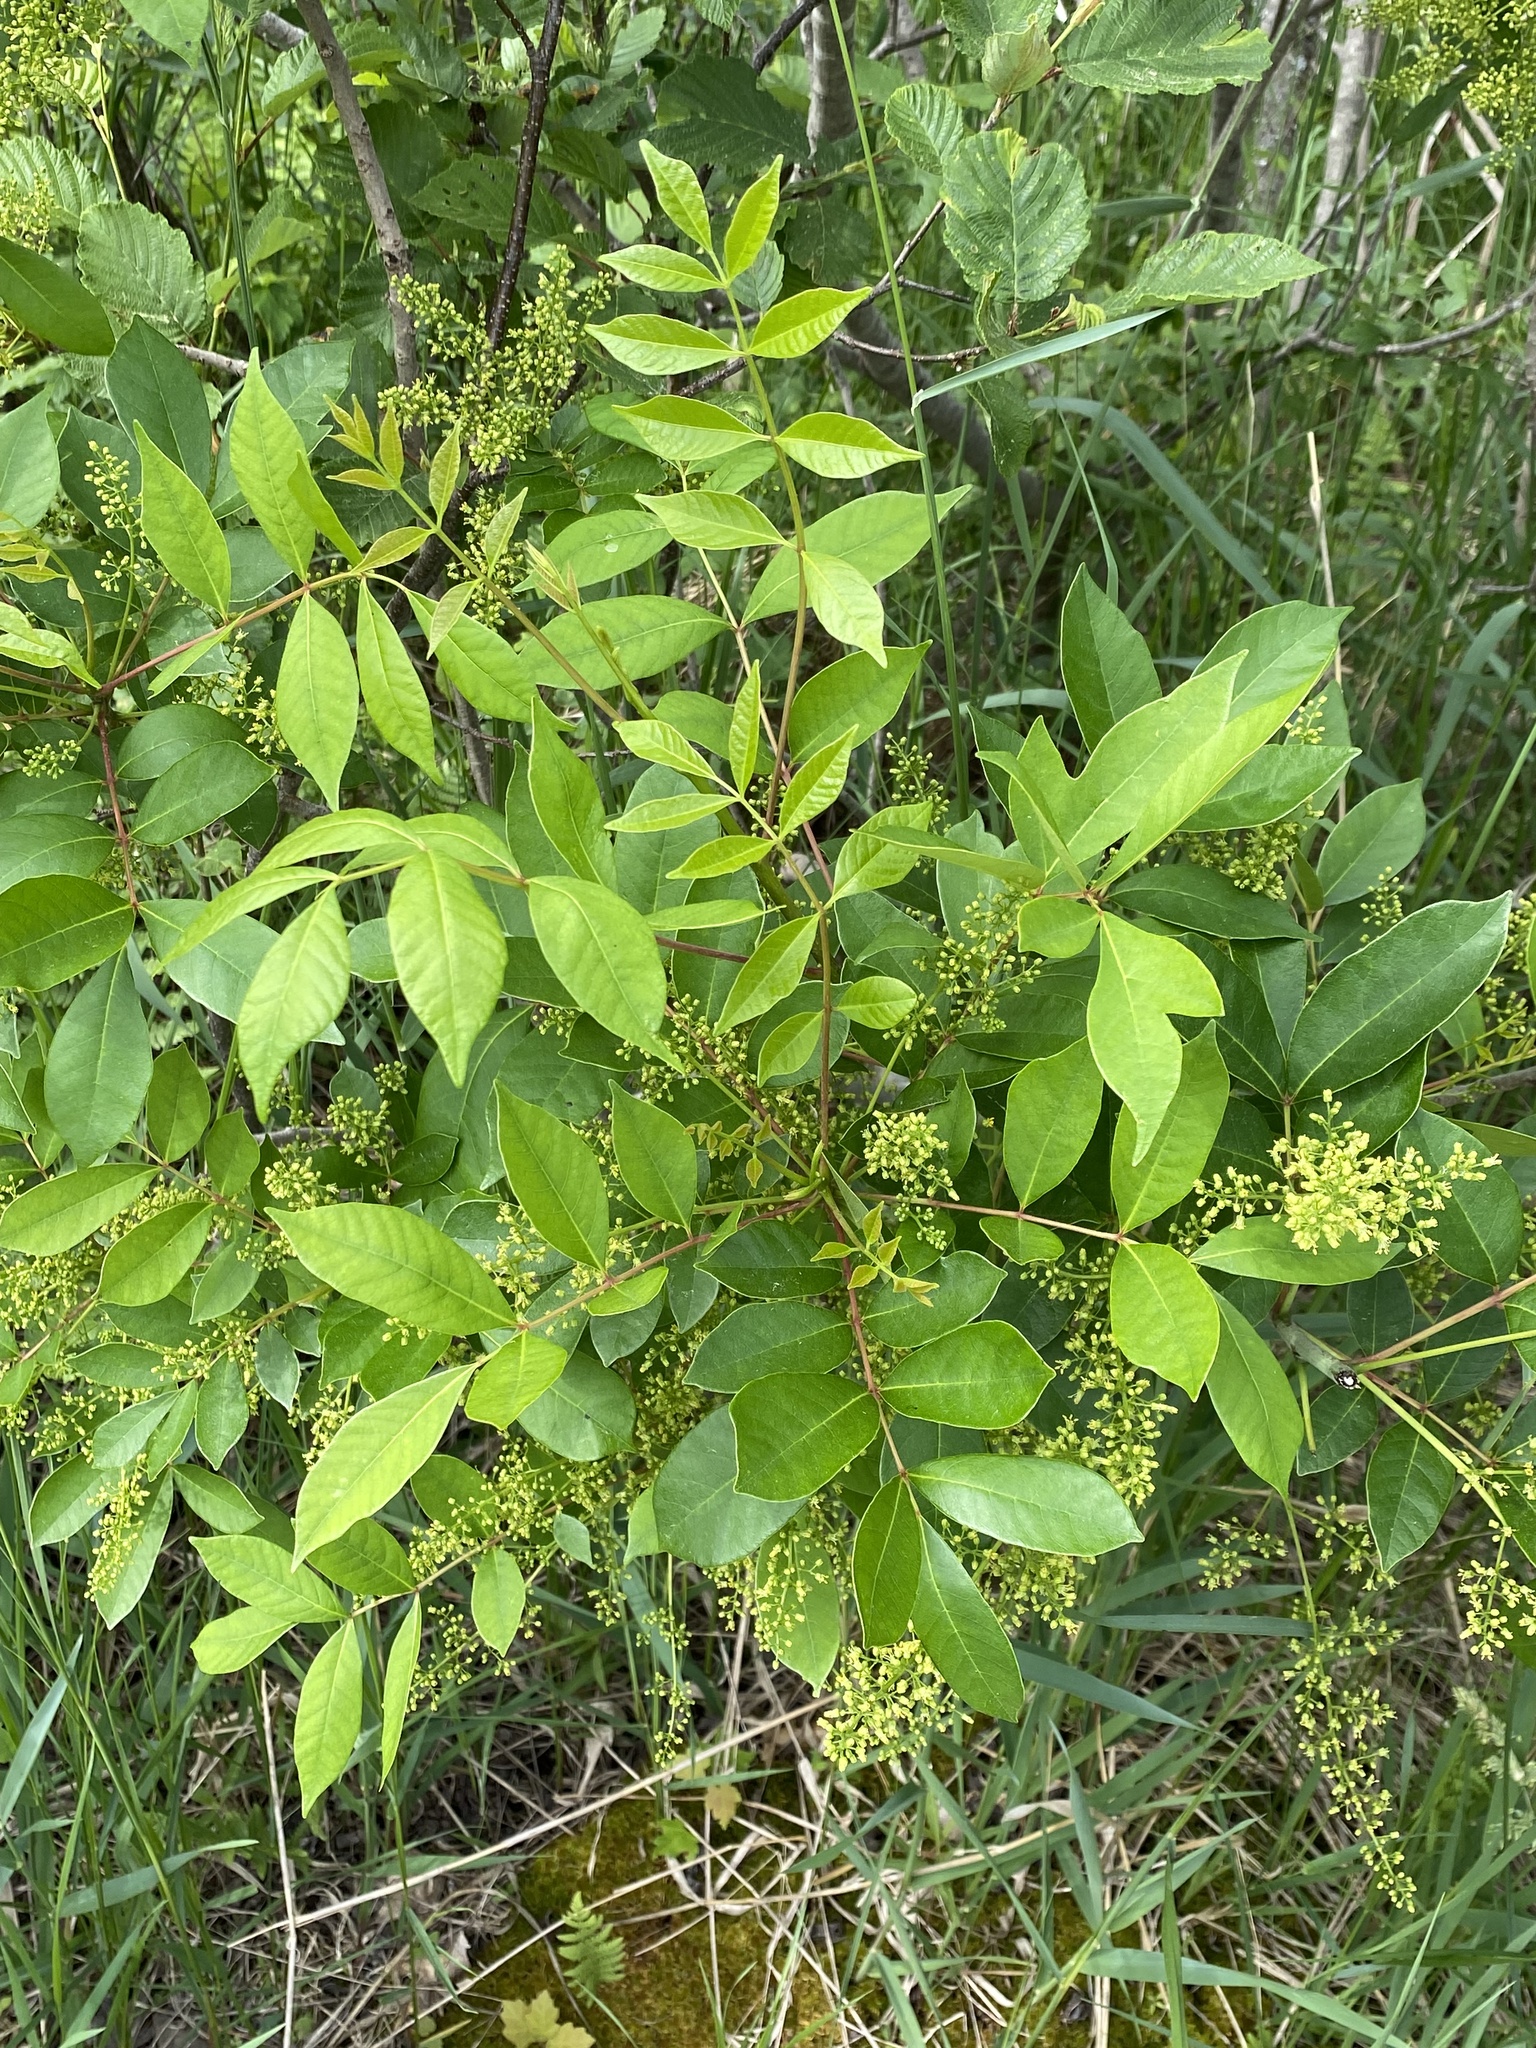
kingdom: Plantae
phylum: Tracheophyta
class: Magnoliopsida
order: Sapindales
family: Anacardiaceae
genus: Toxicodendron
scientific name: Toxicodendron vernix
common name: Poison sumac
